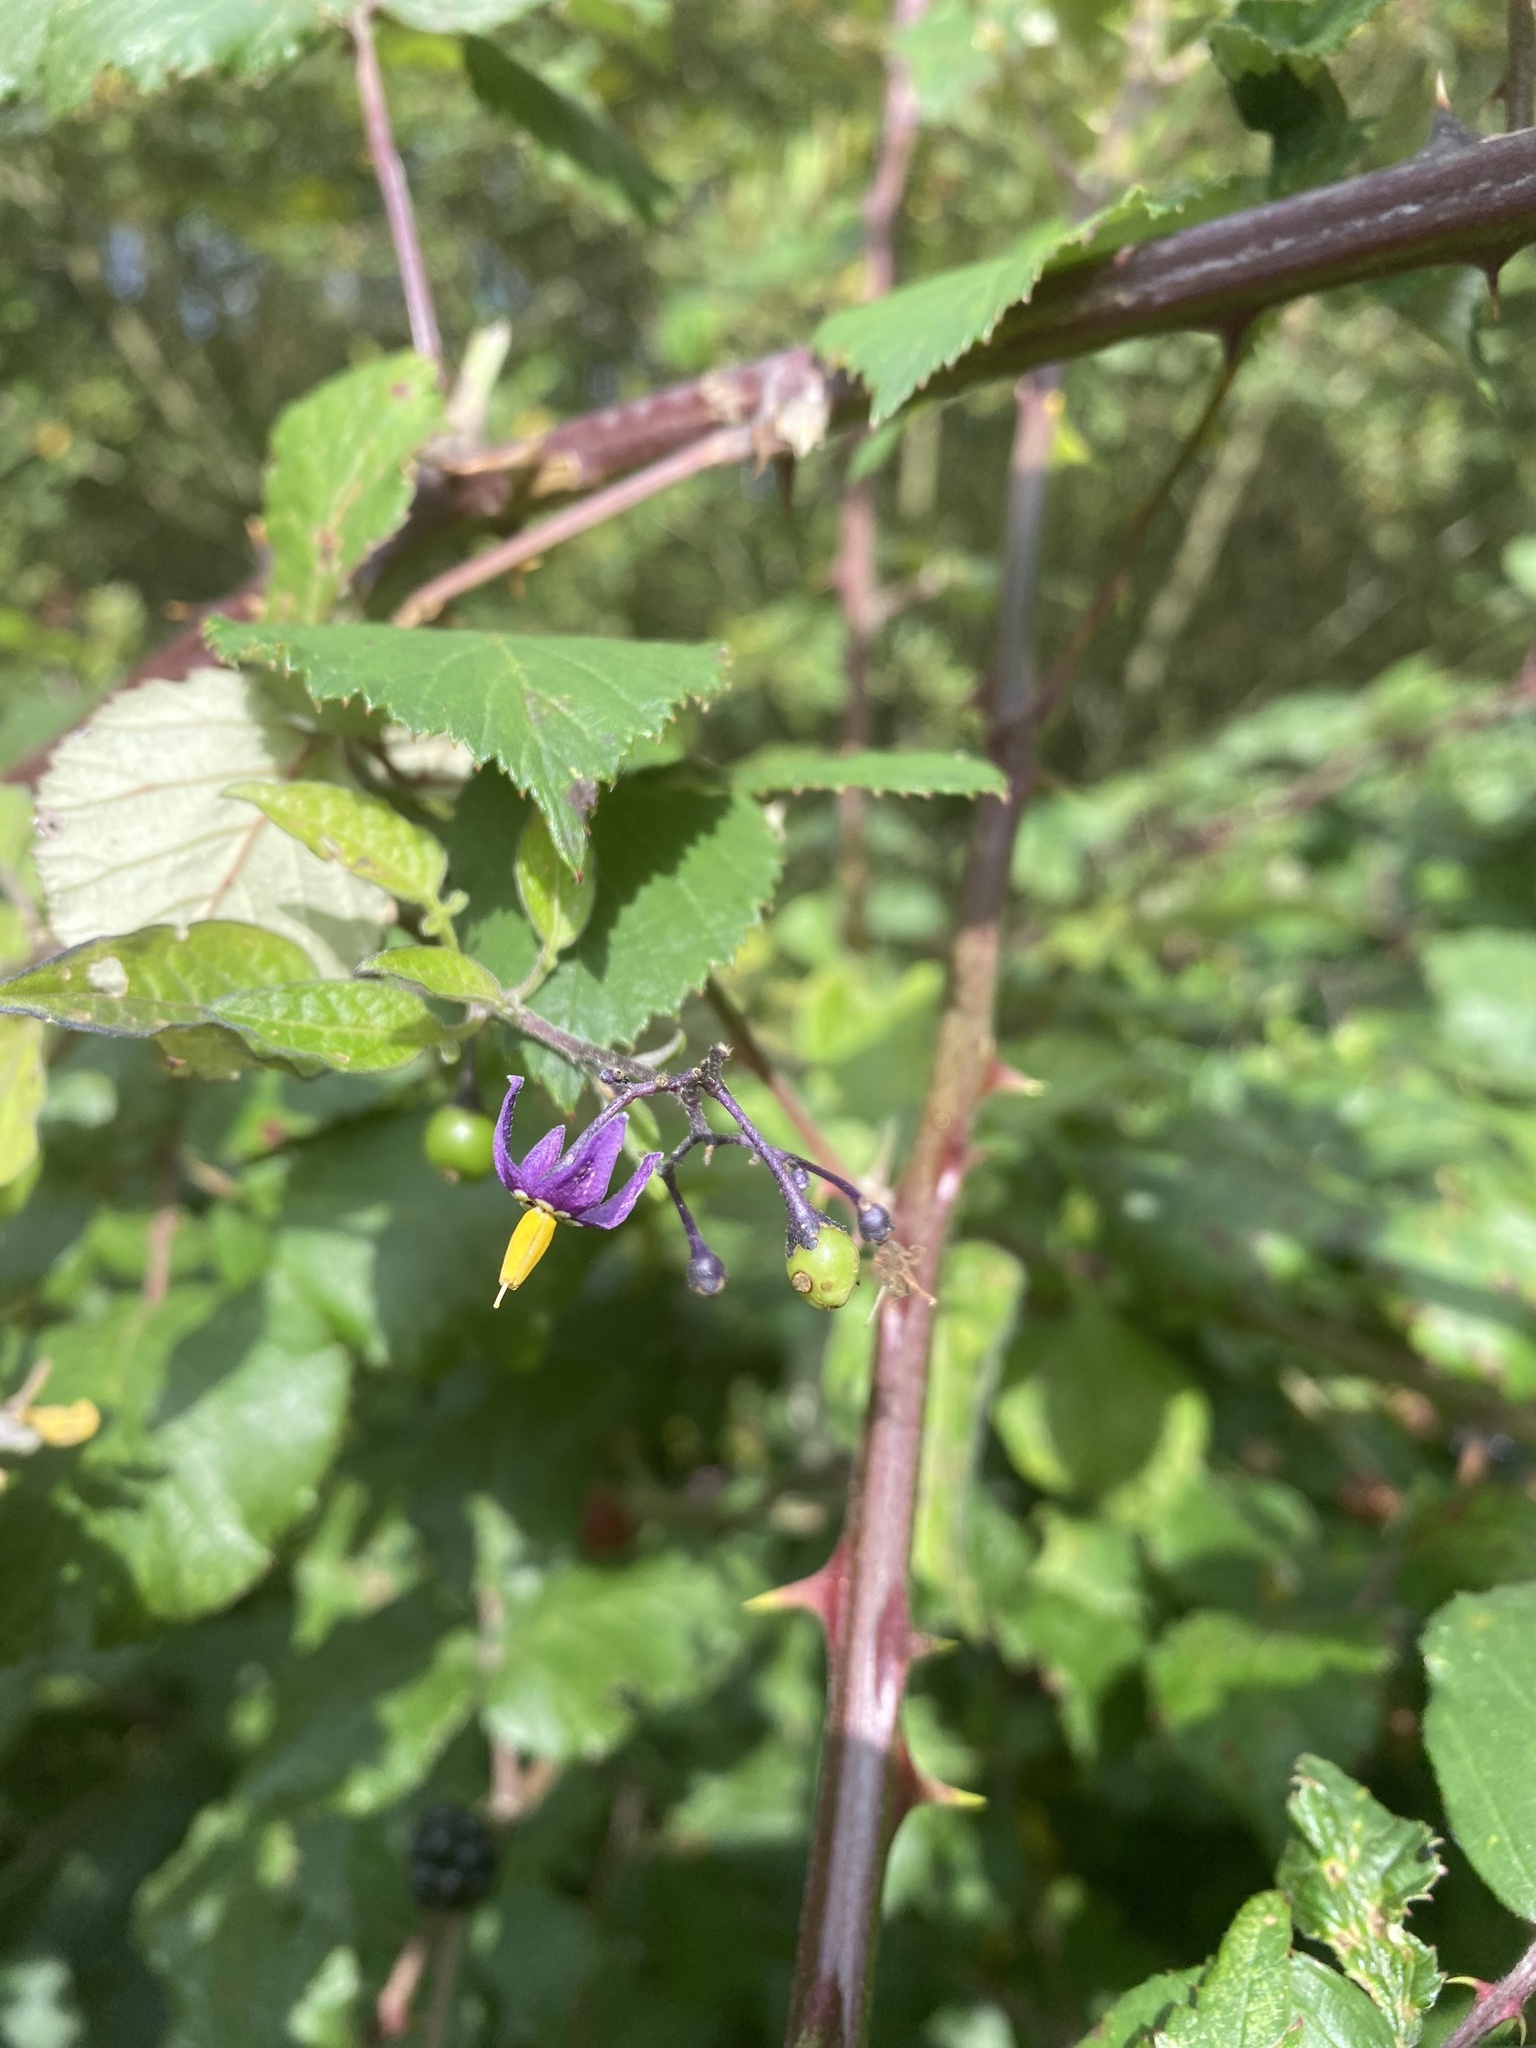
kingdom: Plantae
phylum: Tracheophyta
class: Magnoliopsida
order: Solanales
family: Solanaceae
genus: Solanum
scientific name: Solanum dulcamara
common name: Climbing nightshade
